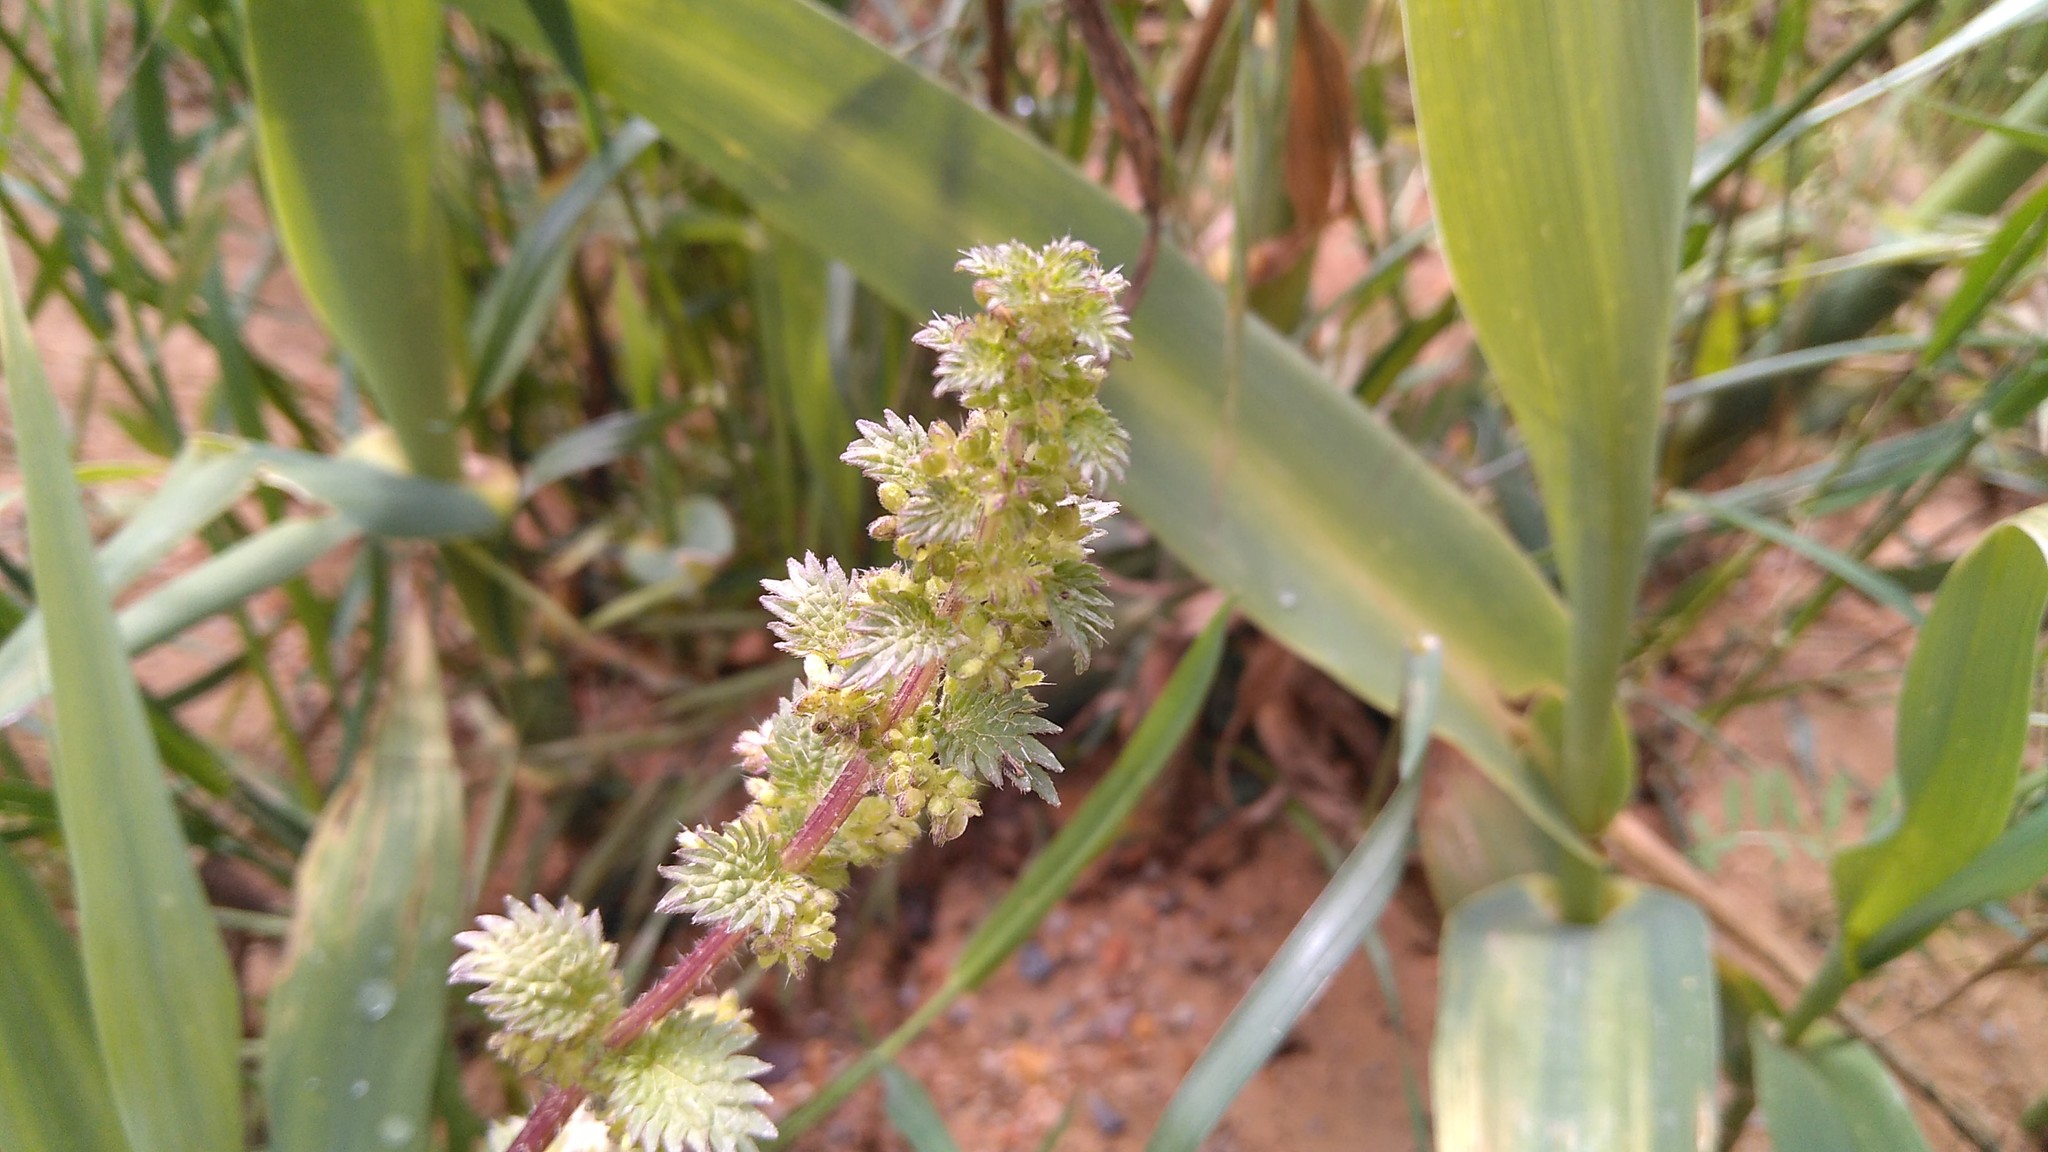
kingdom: Plantae
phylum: Tracheophyta
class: Magnoliopsida
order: Rosales
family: Urticaceae
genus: Urtica
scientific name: Urtica urens
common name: Dwarf nettle
